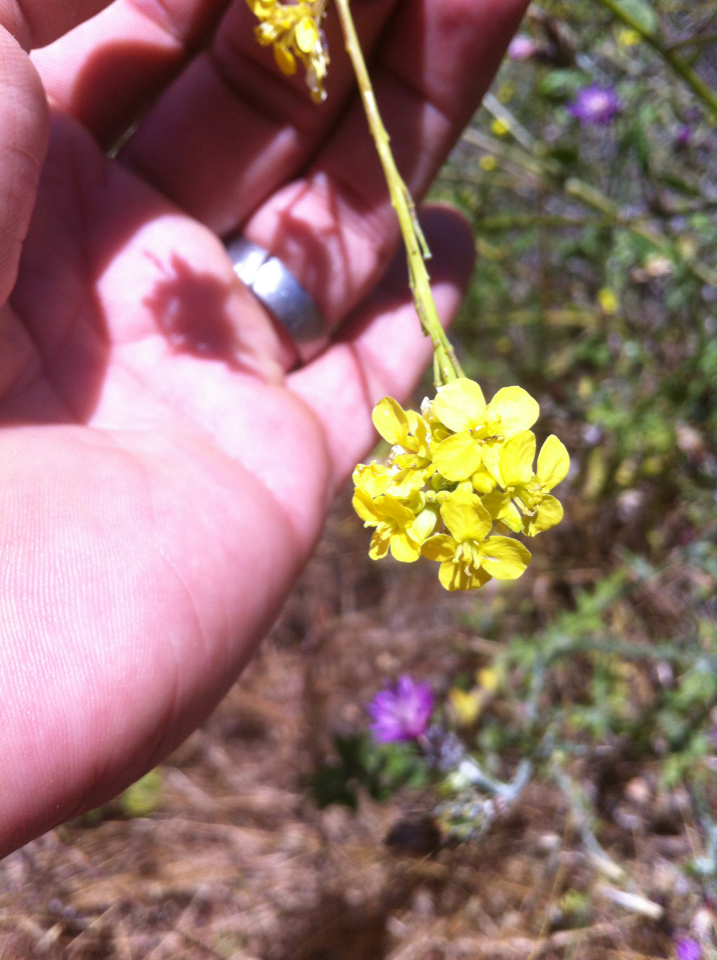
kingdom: Plantae
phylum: Tracheophyta
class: Magnoliopsida
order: Brassicales
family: Brassicaceae
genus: Hirschfeldia
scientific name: Hirschfeldia incana
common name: Hoary mustard
